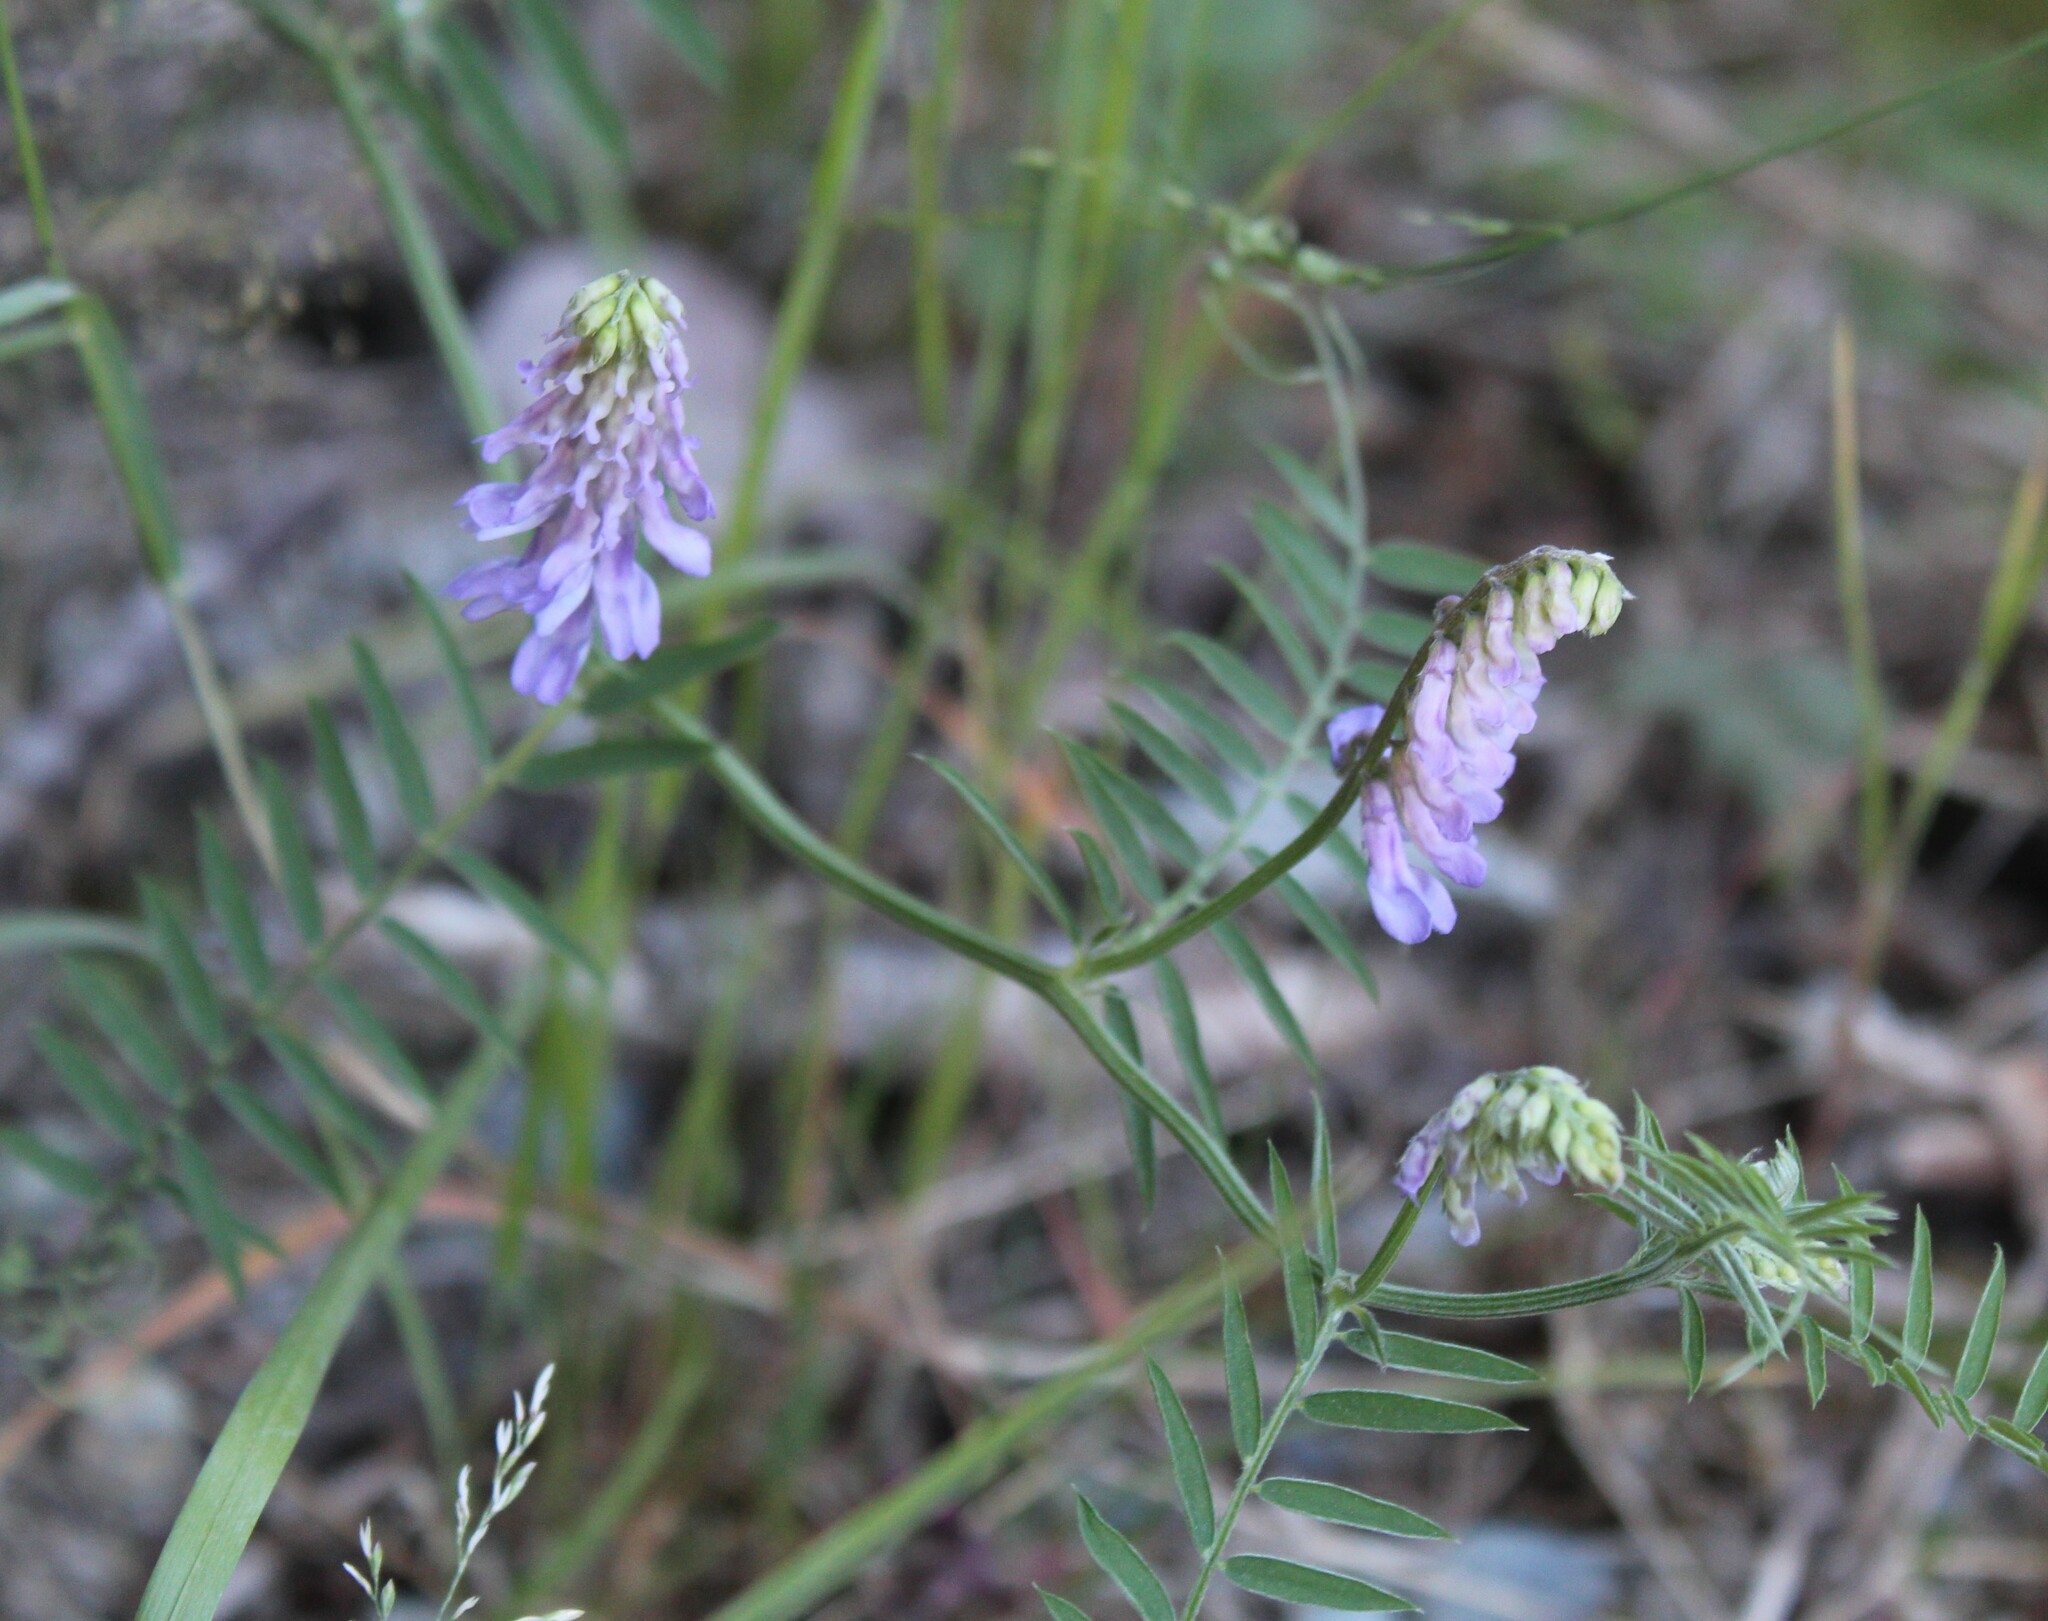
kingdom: Plantae
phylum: Tracheophyta
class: Magnoliopsida
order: Fabales
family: Fabaceae
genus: Vicia
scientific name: Vicia cracca
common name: Bird vetch
